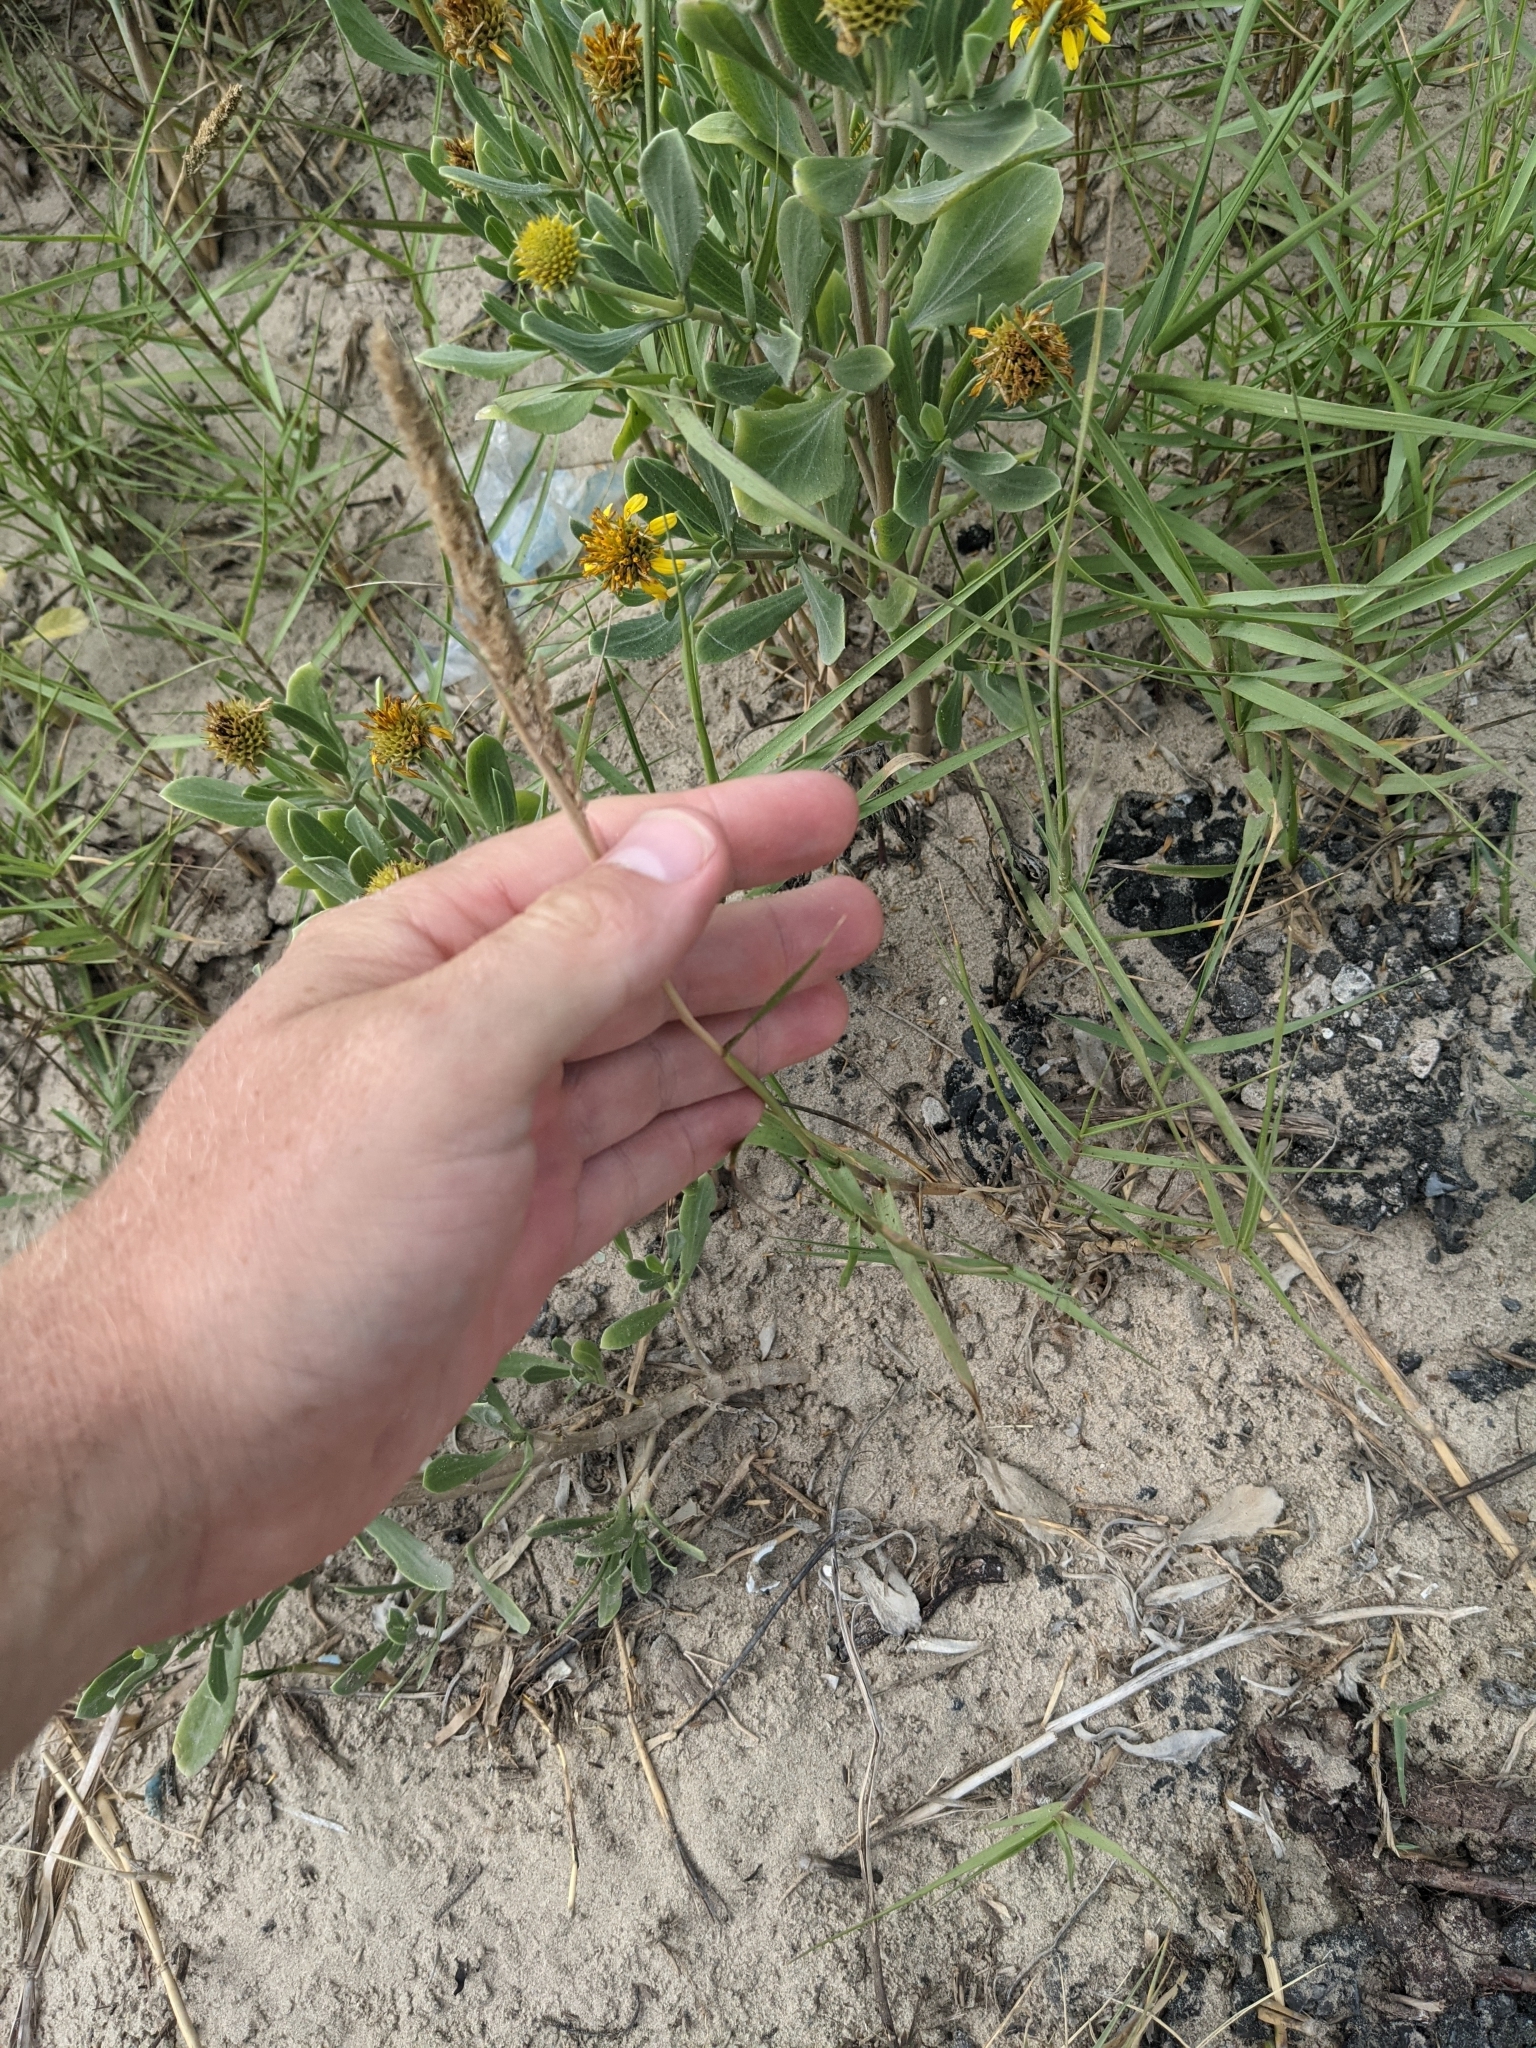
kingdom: Plantae
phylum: Tracheophyta
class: Liliopsida
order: Poales
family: Poaceae
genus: Sporobolus
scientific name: Sporobolus virginicus
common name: Beach dropseed
